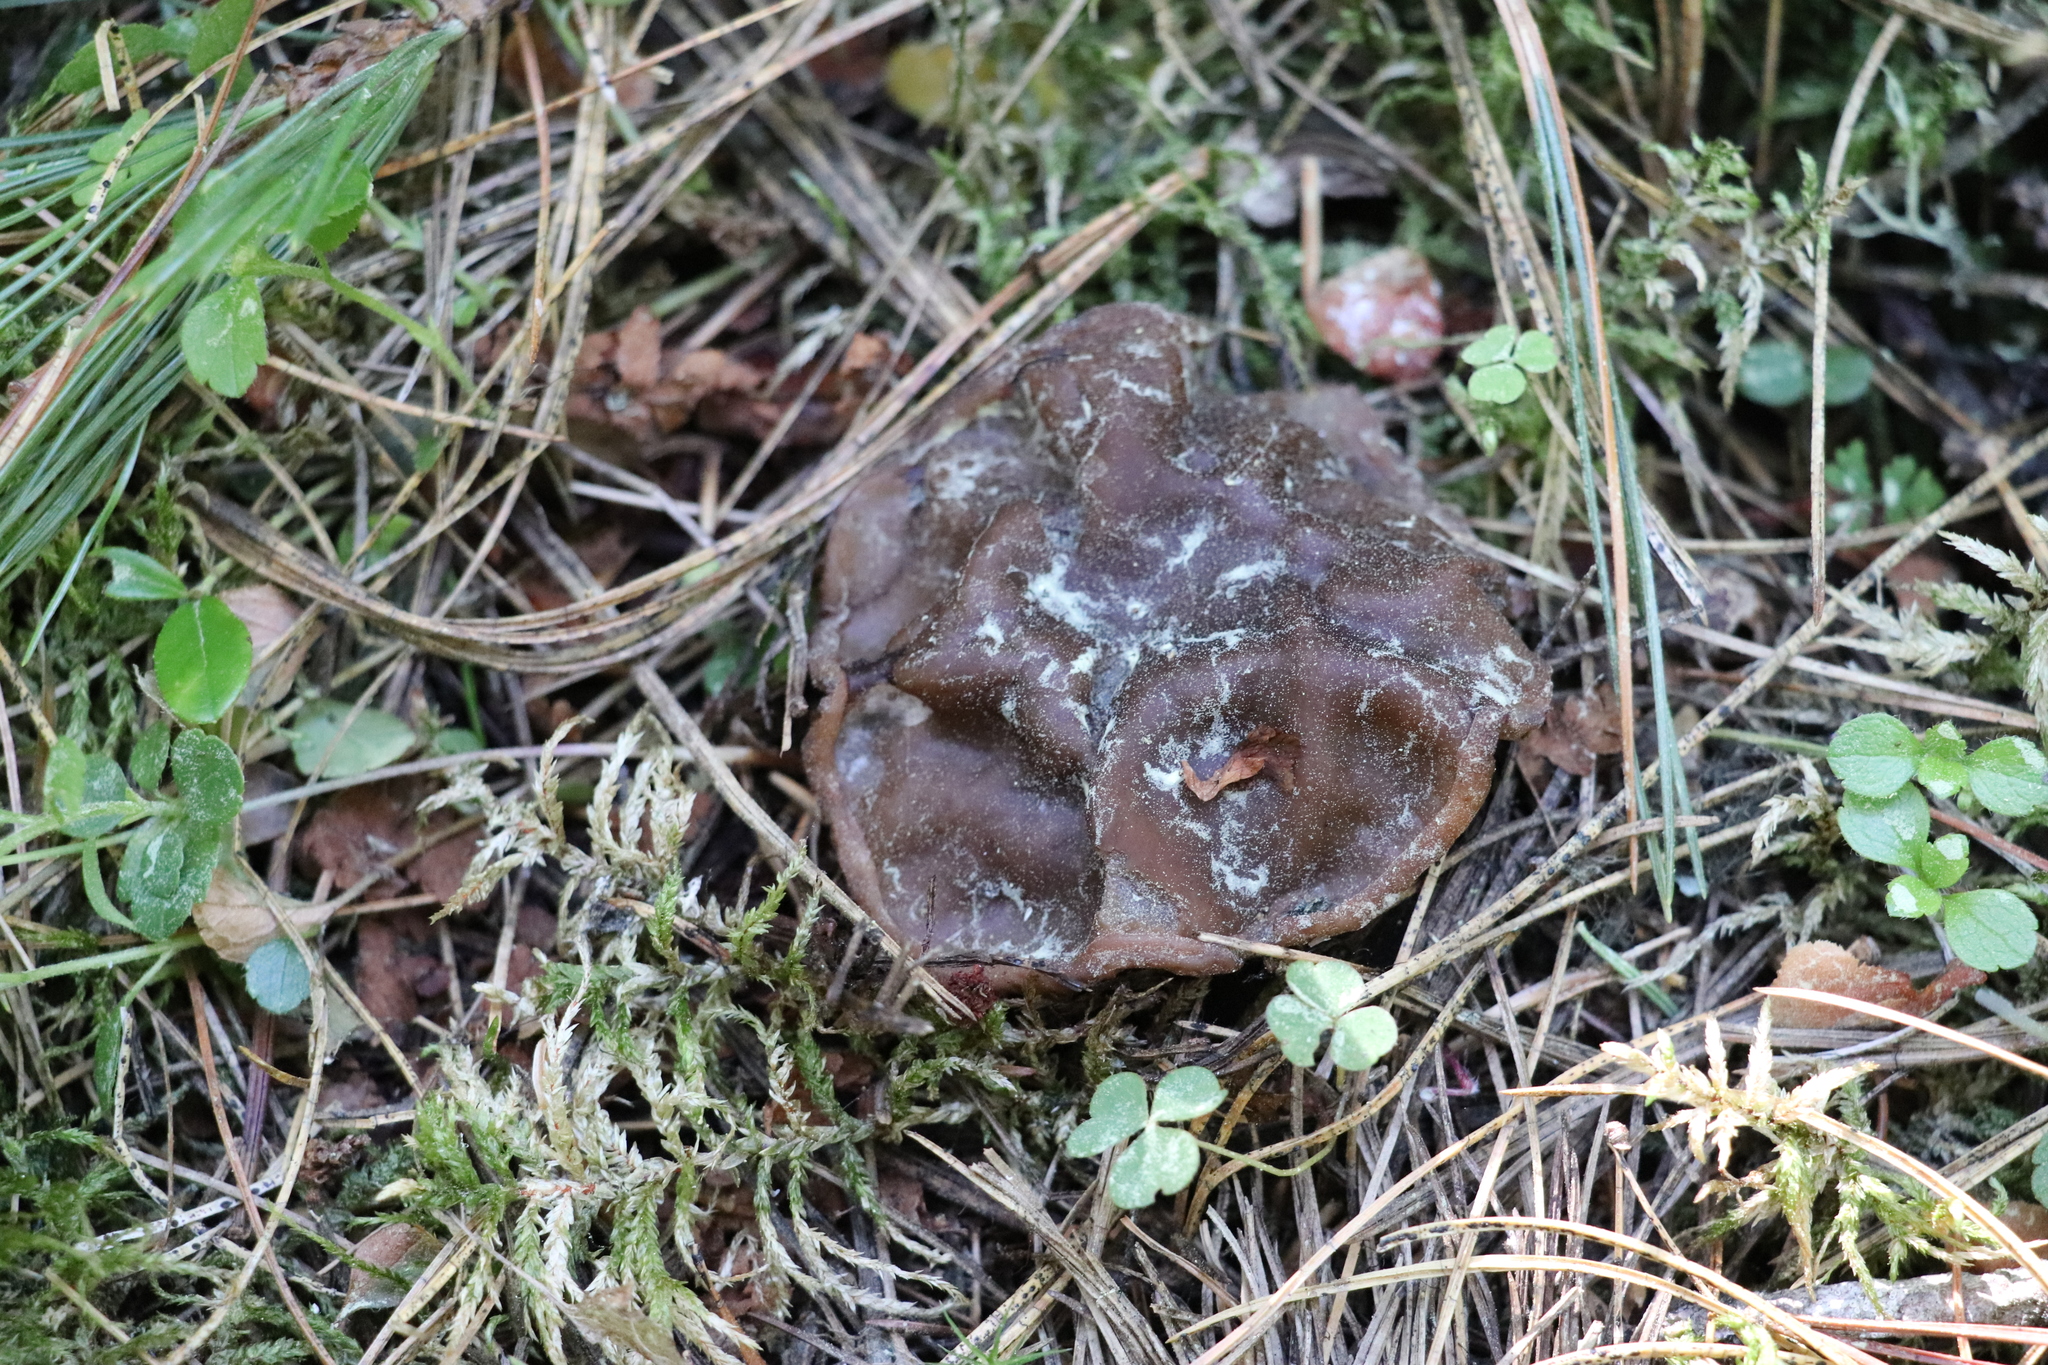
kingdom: Fungi
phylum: Ascomycota
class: Pezizomycetes
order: Pezizales
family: Sarcosomataceae
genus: Sarcosoma
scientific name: Sarcosoma globosum
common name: Charred-pancake cup
